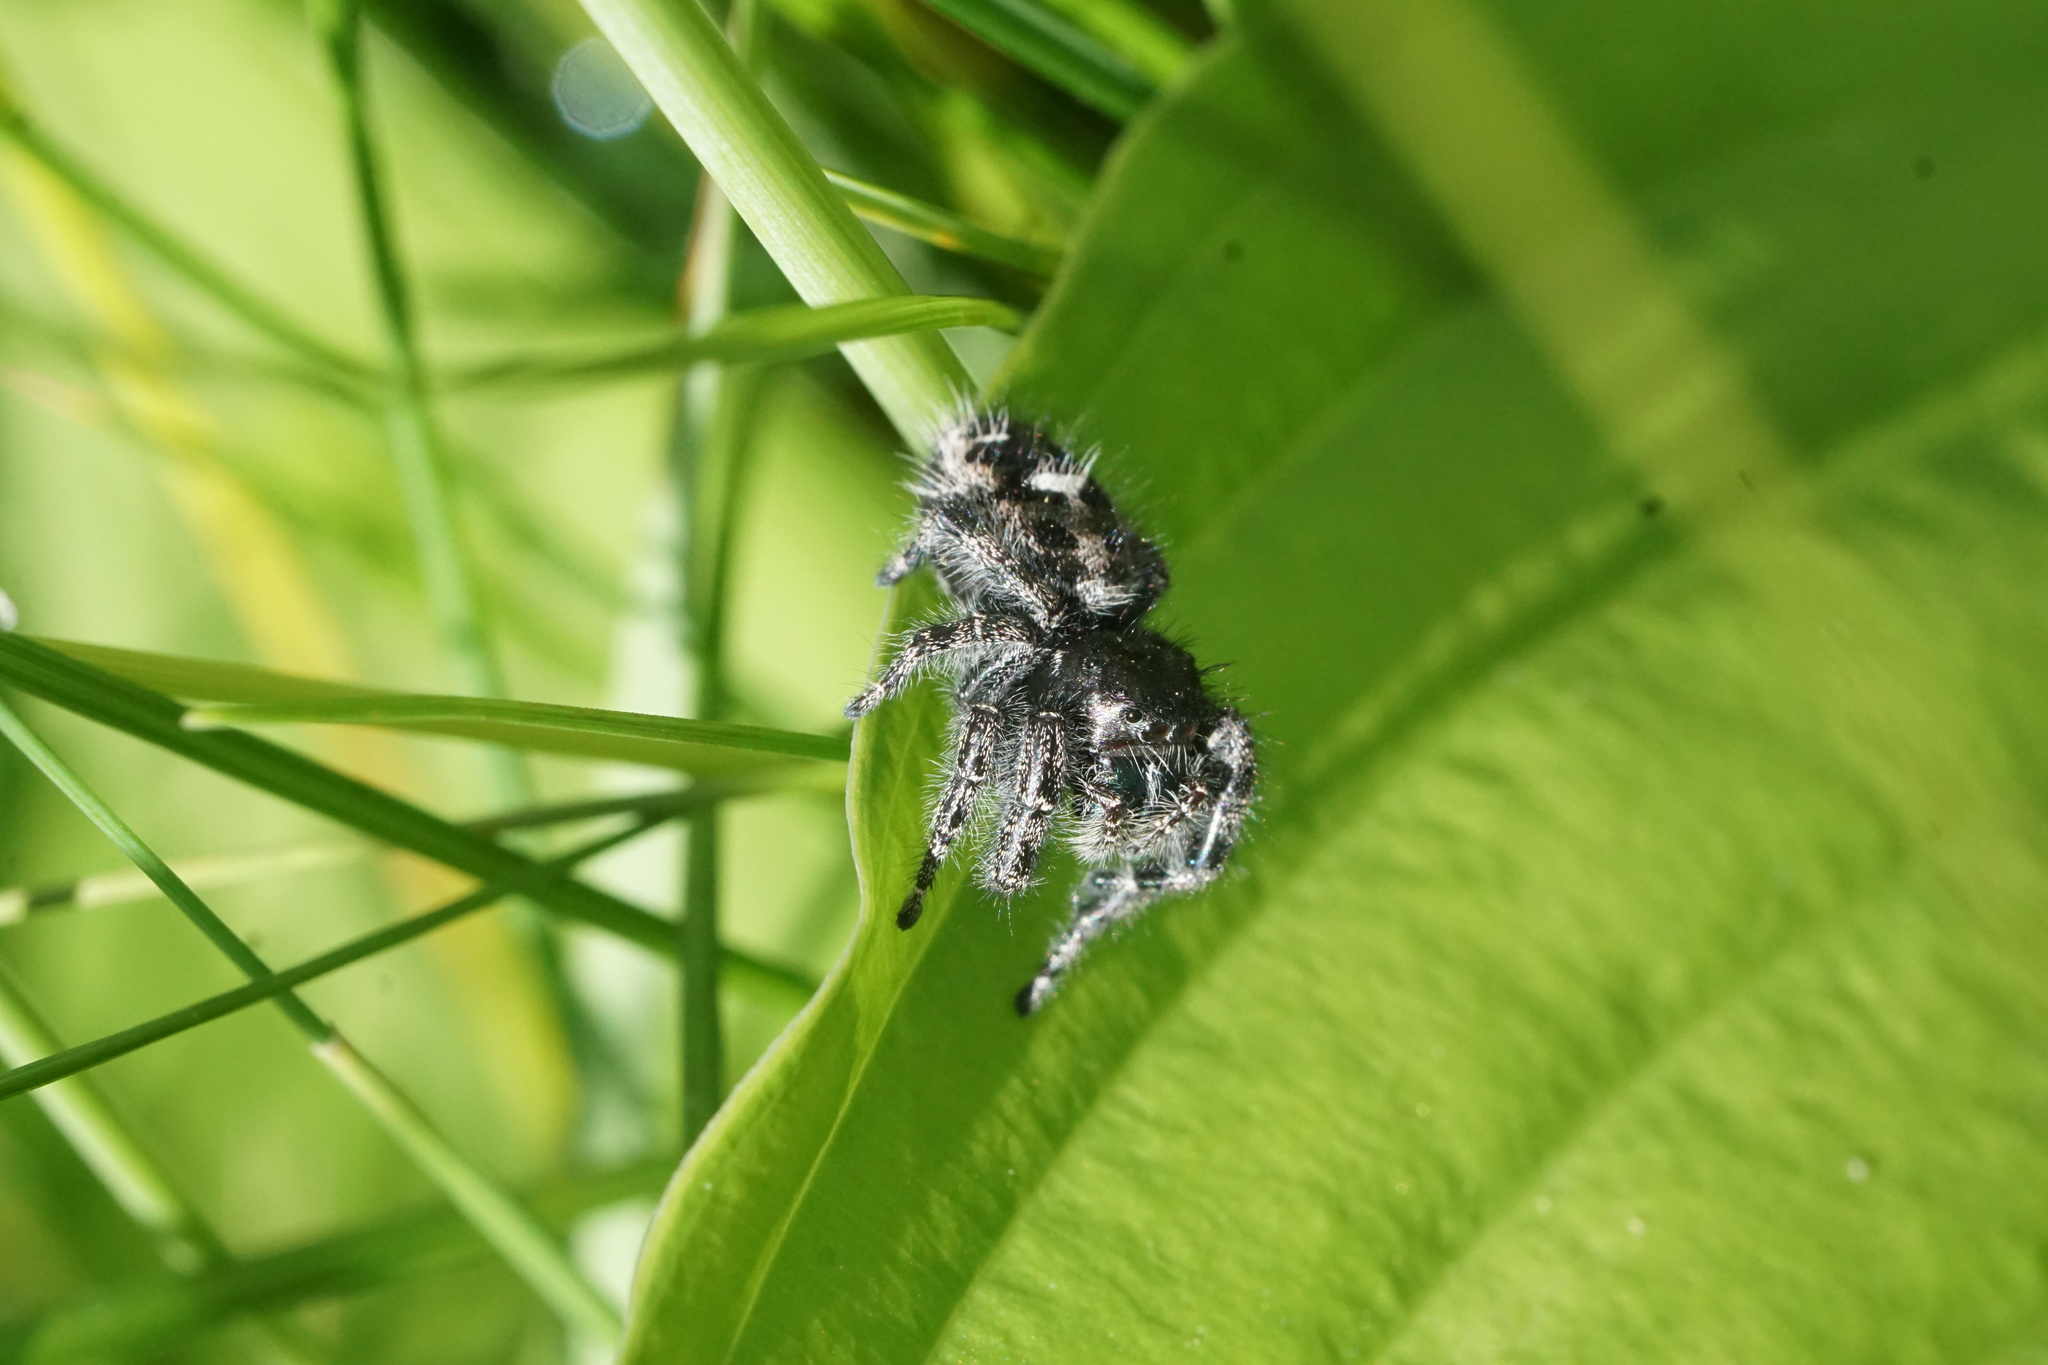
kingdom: Animalia
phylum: Arthropoda
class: Arachnida
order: Araneae
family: Salticidae
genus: Phidippus
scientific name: Phidippus audax
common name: Bold jumper
